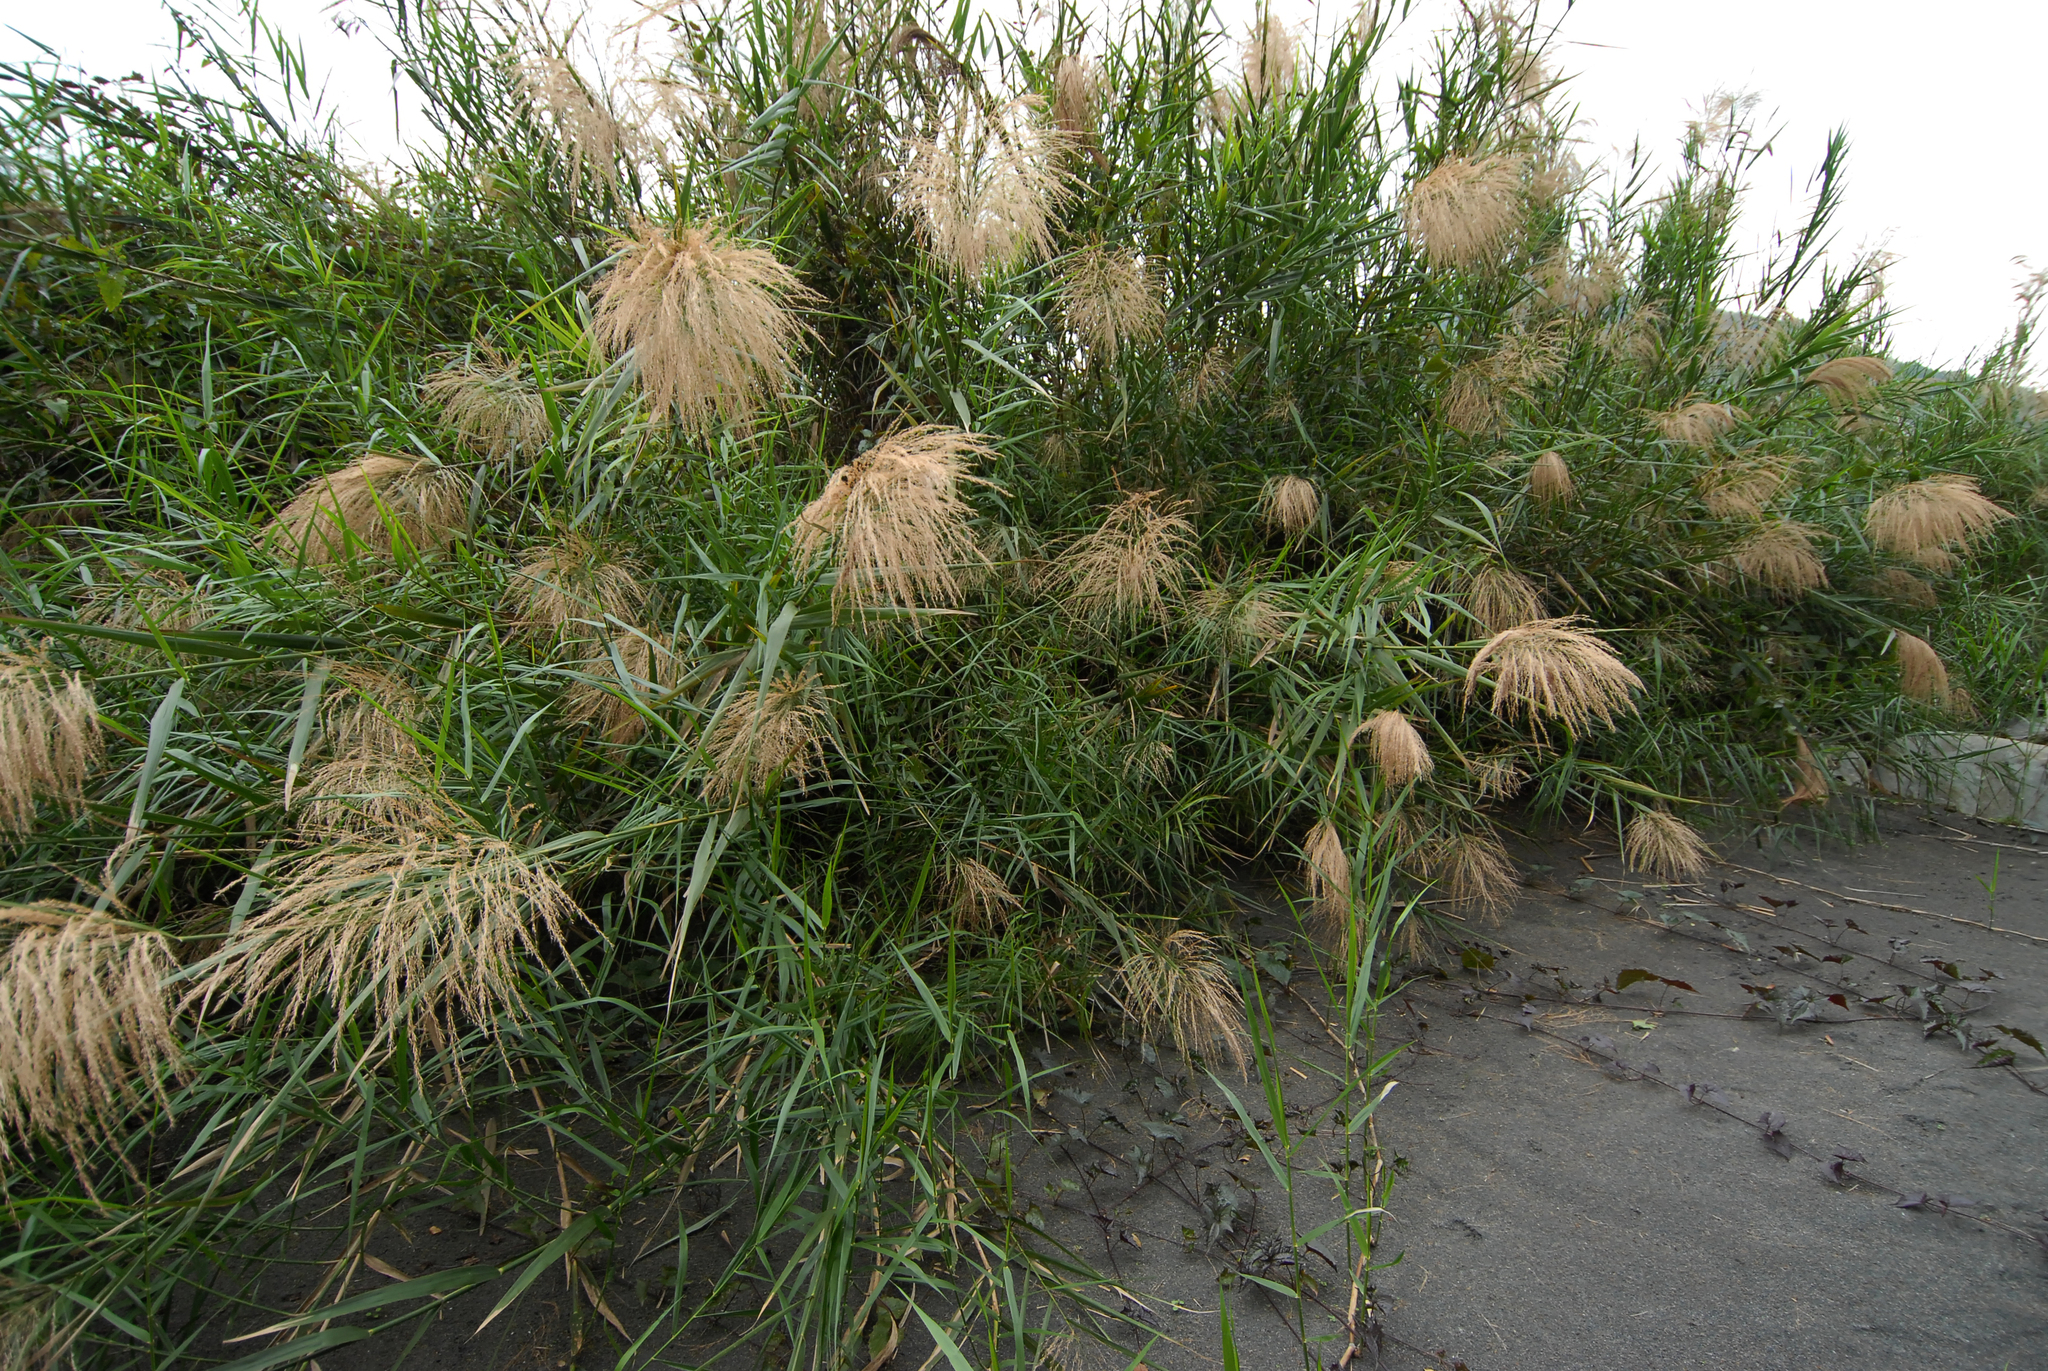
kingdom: Plantae
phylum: Tracheophyta
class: Liliopsida
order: Poales
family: Poaceae
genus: Phragmites
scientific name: Phragmites karka
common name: Tropical reed
